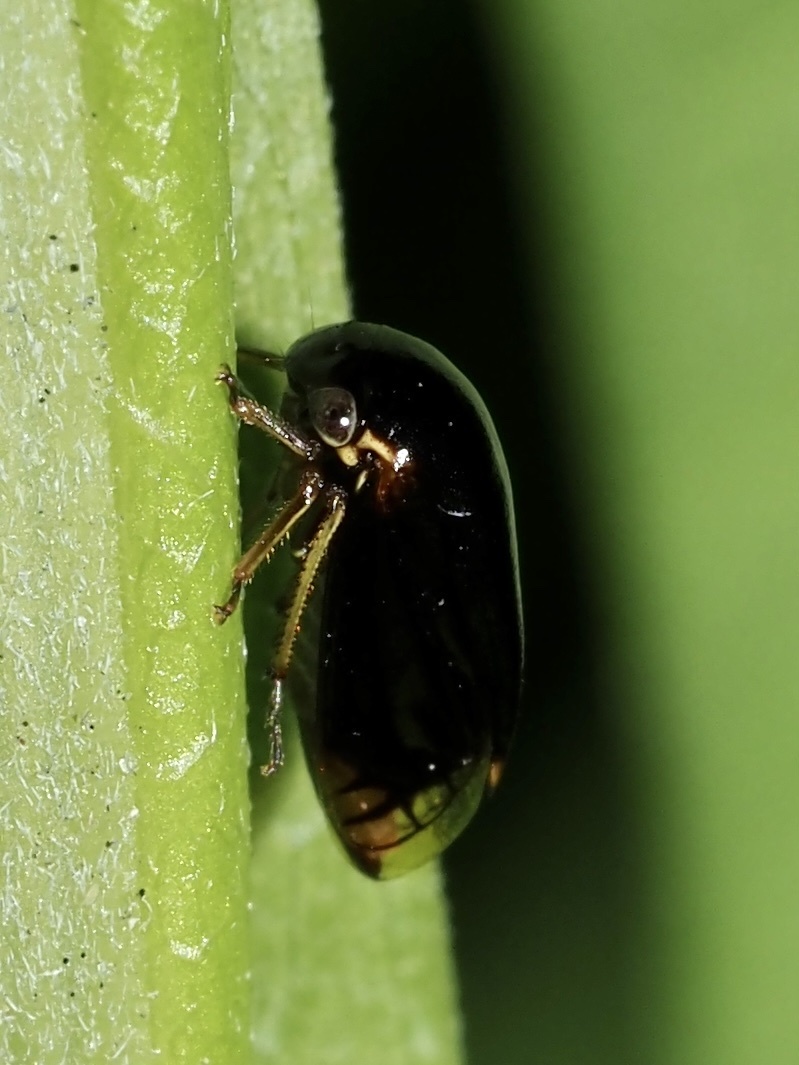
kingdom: Animalia
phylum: Arthropoda
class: Insecta
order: Hemiptera
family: Membracidae
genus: Acutalis
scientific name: Acutalis tartarea
